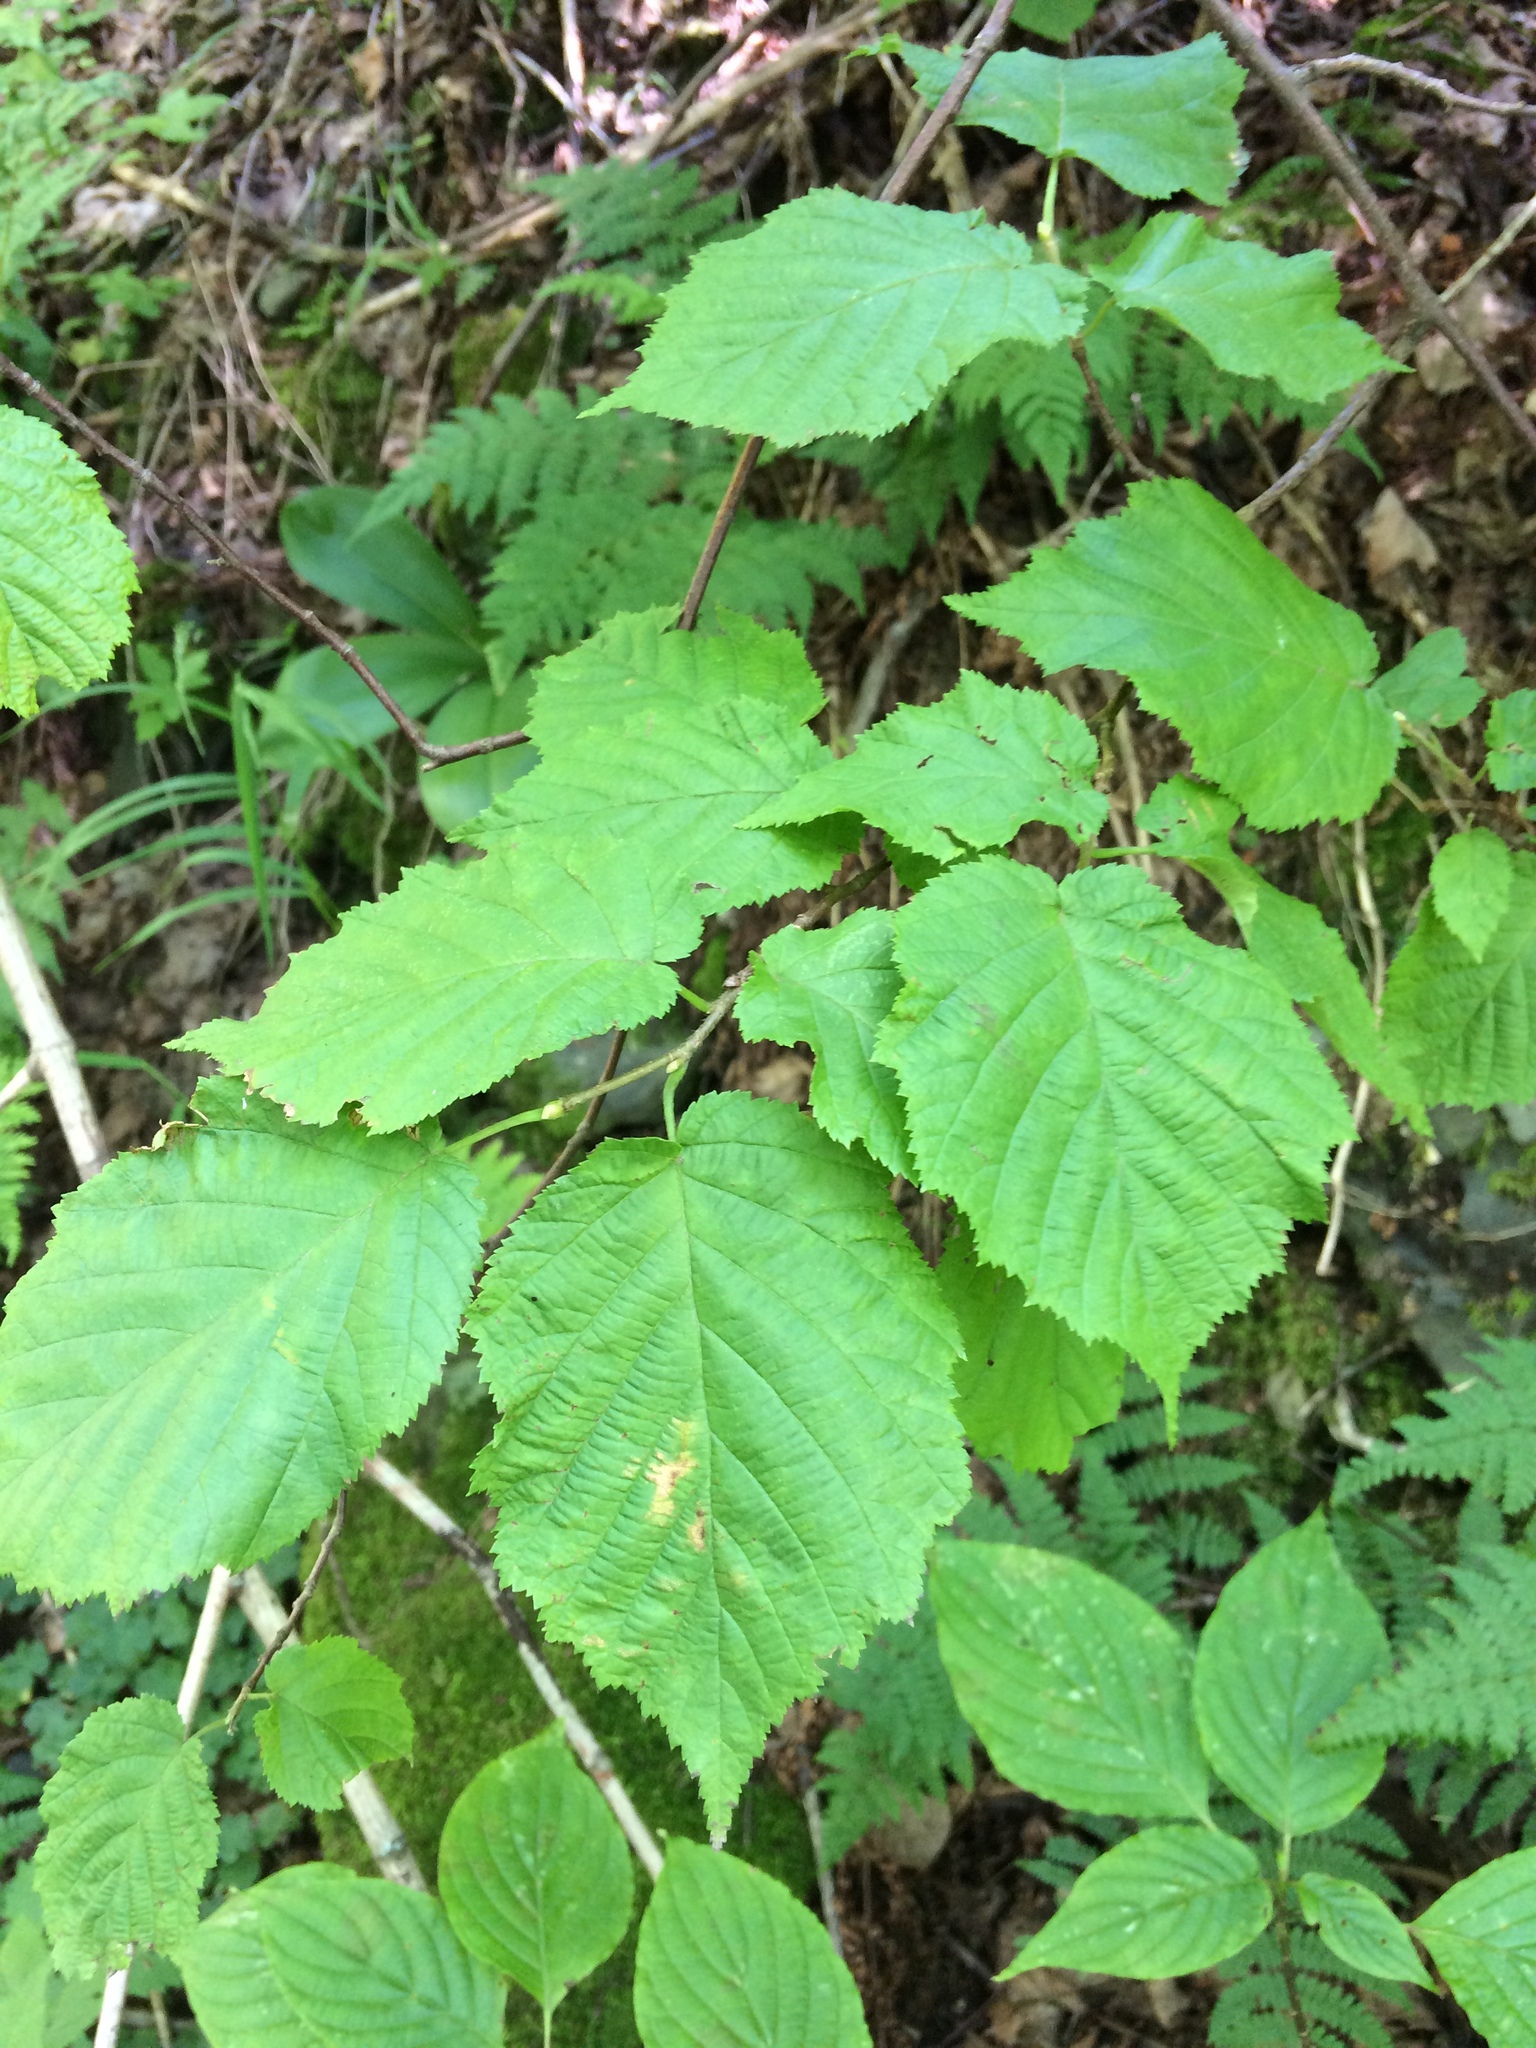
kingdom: Plantae
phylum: Tracheophyta
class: Magnoliopsida
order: Fagales
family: Betulaceae
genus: Corylus
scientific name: Corylus cornuta
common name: Beaked hazel
